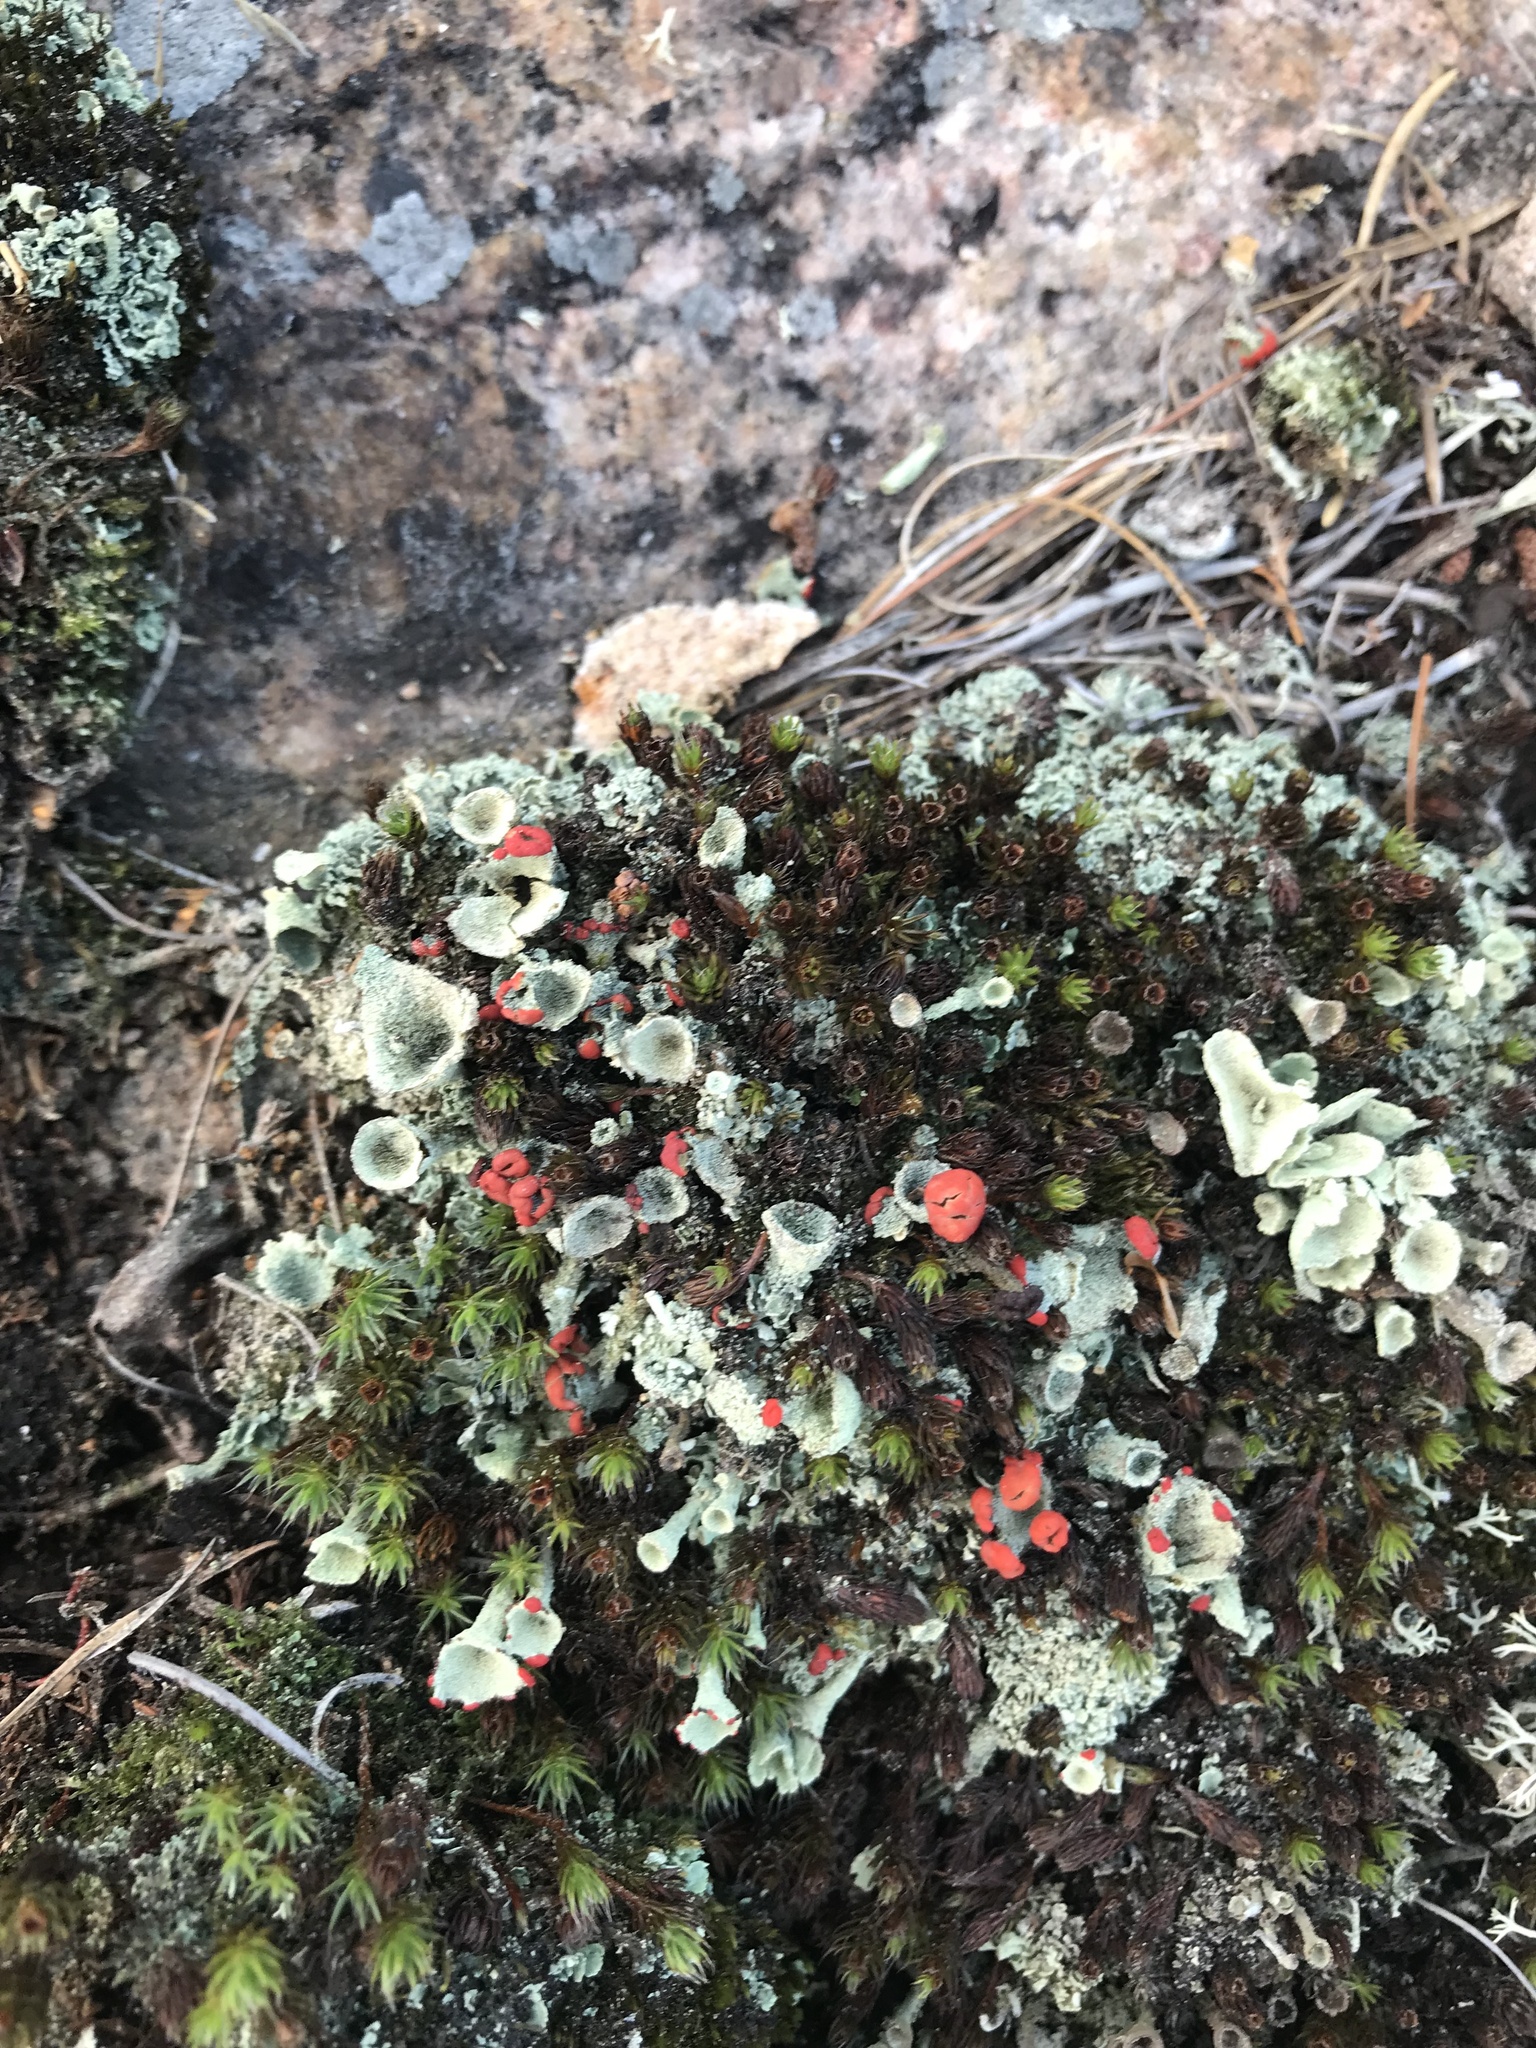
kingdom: Fungi
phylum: Ascomycota
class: Lecanoromycetes
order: Lecanorales
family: Cladoniaceae
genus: Cladonia
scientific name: Cladonia pleurota
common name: Red-fruited pixie cup
